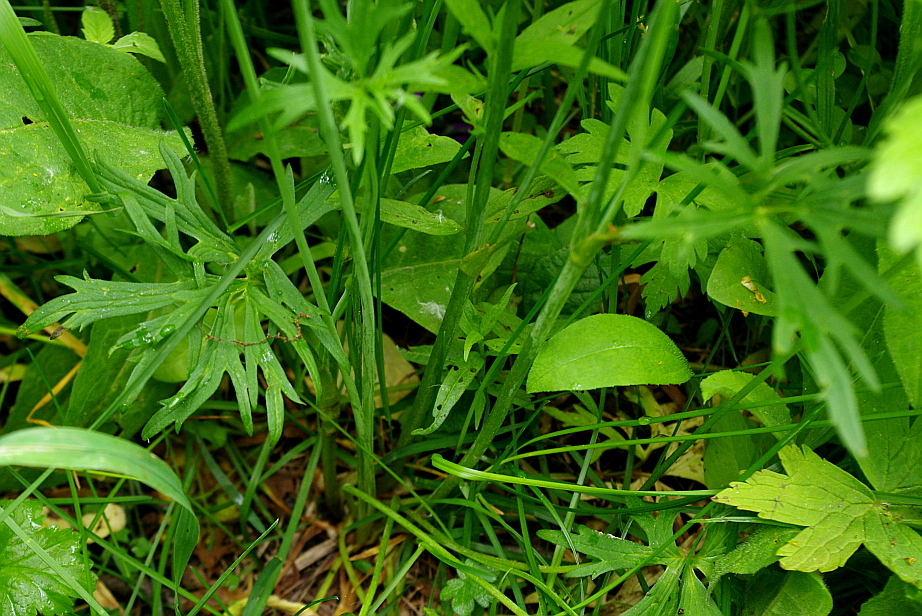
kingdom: Plantae
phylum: Tracheophyta
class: Magnoliopsida
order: Ranunculales
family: Ranunculaceae
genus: Ranunculus
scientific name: Ranunculus acris
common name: Meadow buttercup
